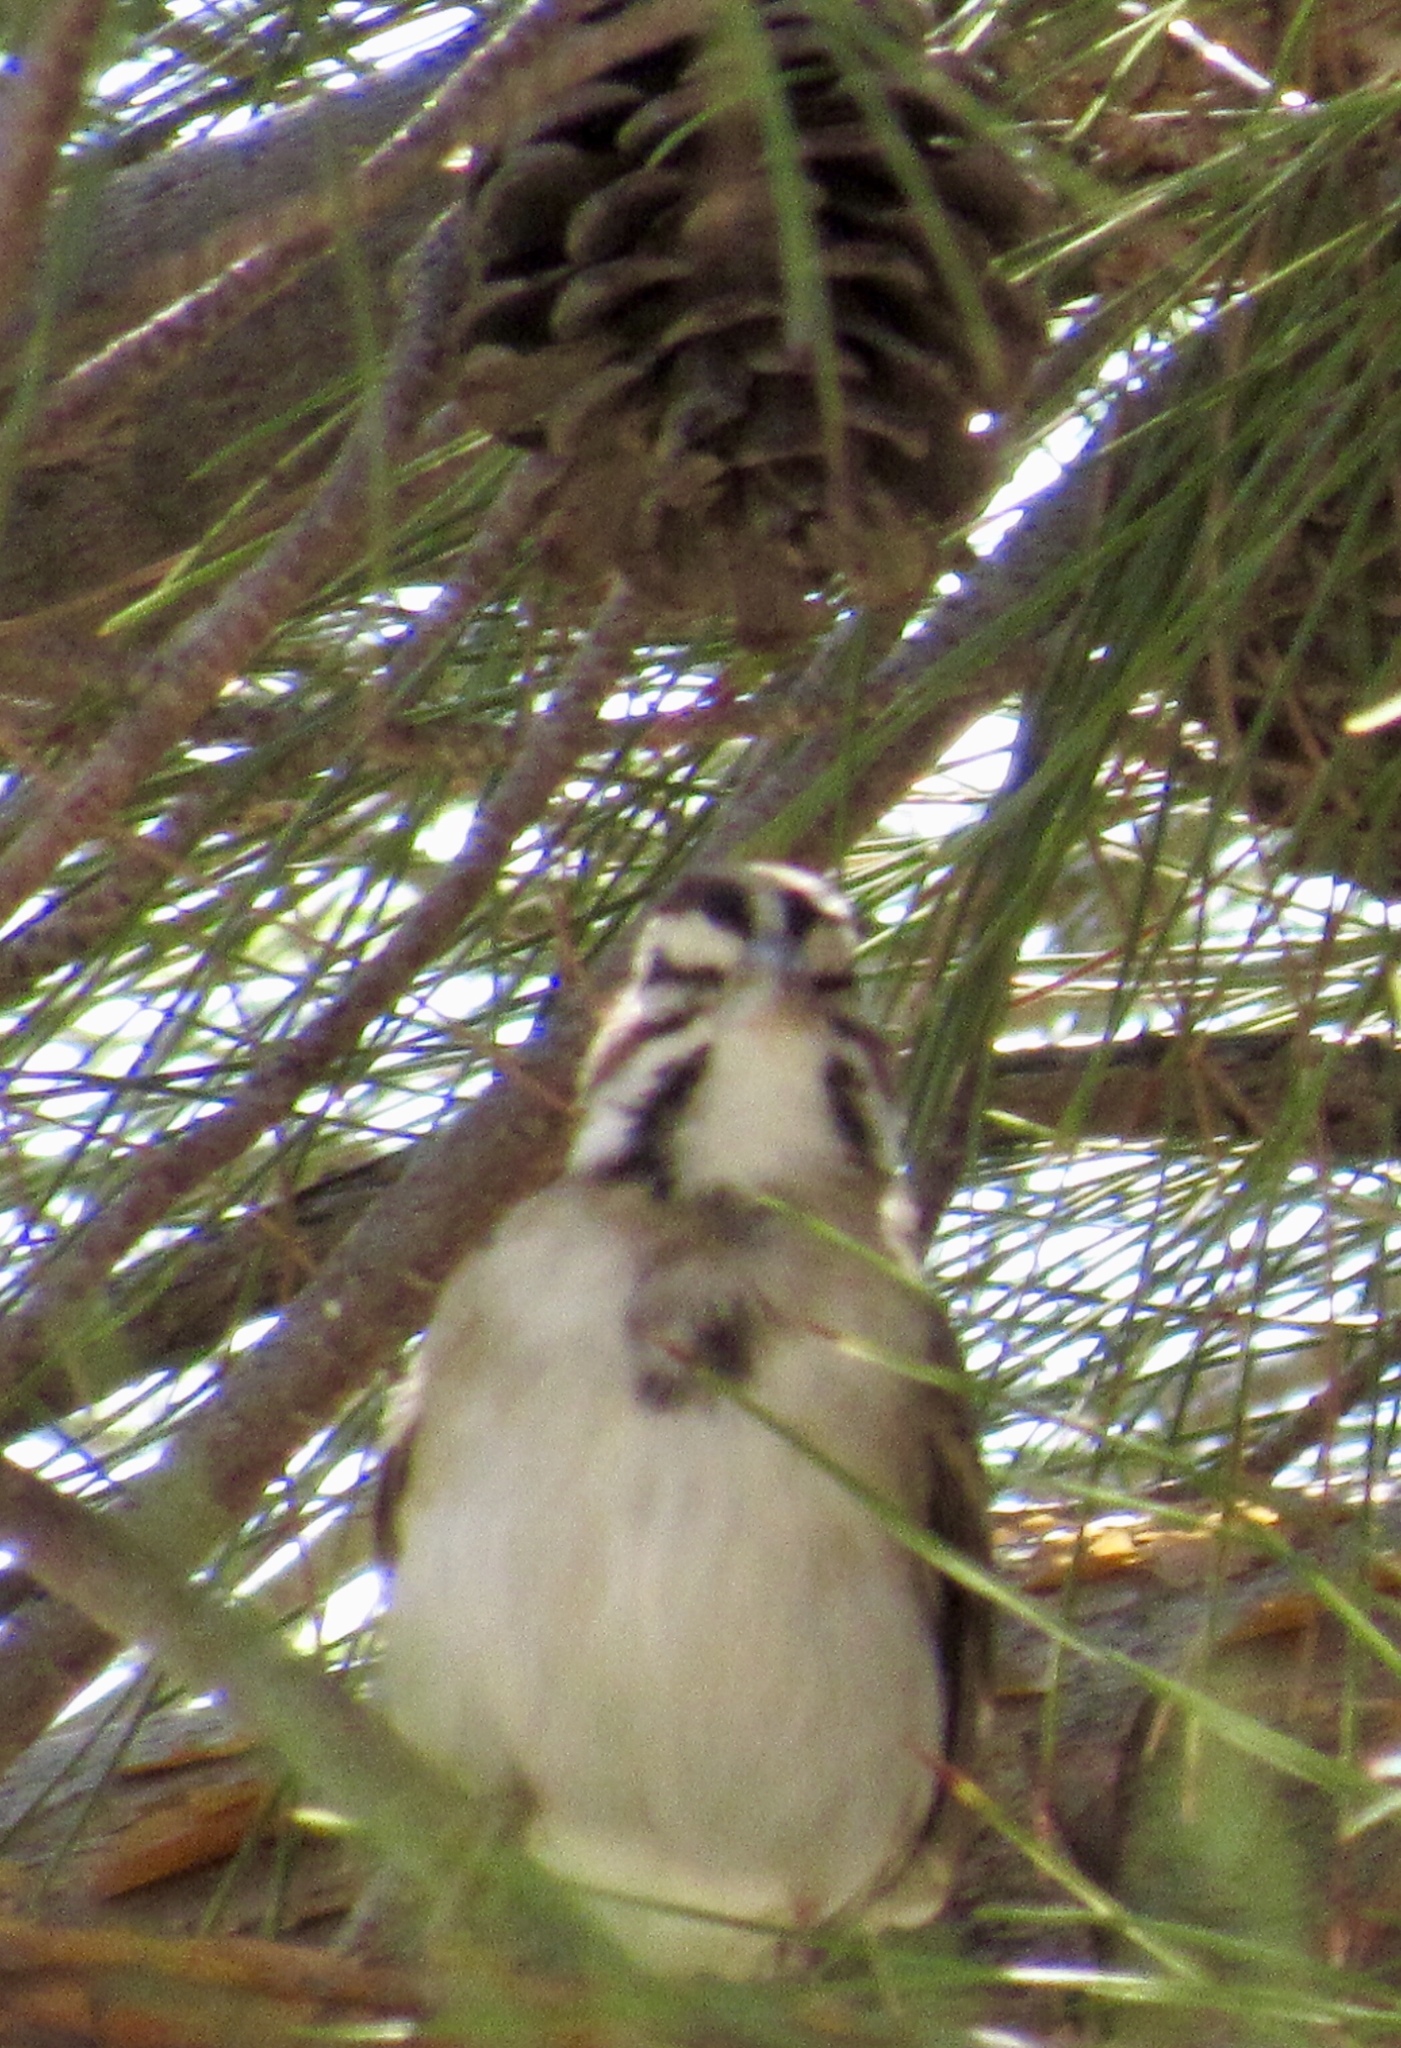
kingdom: Animalia
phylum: Chordata
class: Aves
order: Passeriformes
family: Passerellidae
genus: Chondestes
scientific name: Chondestes grammacus
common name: Lark sparrow
